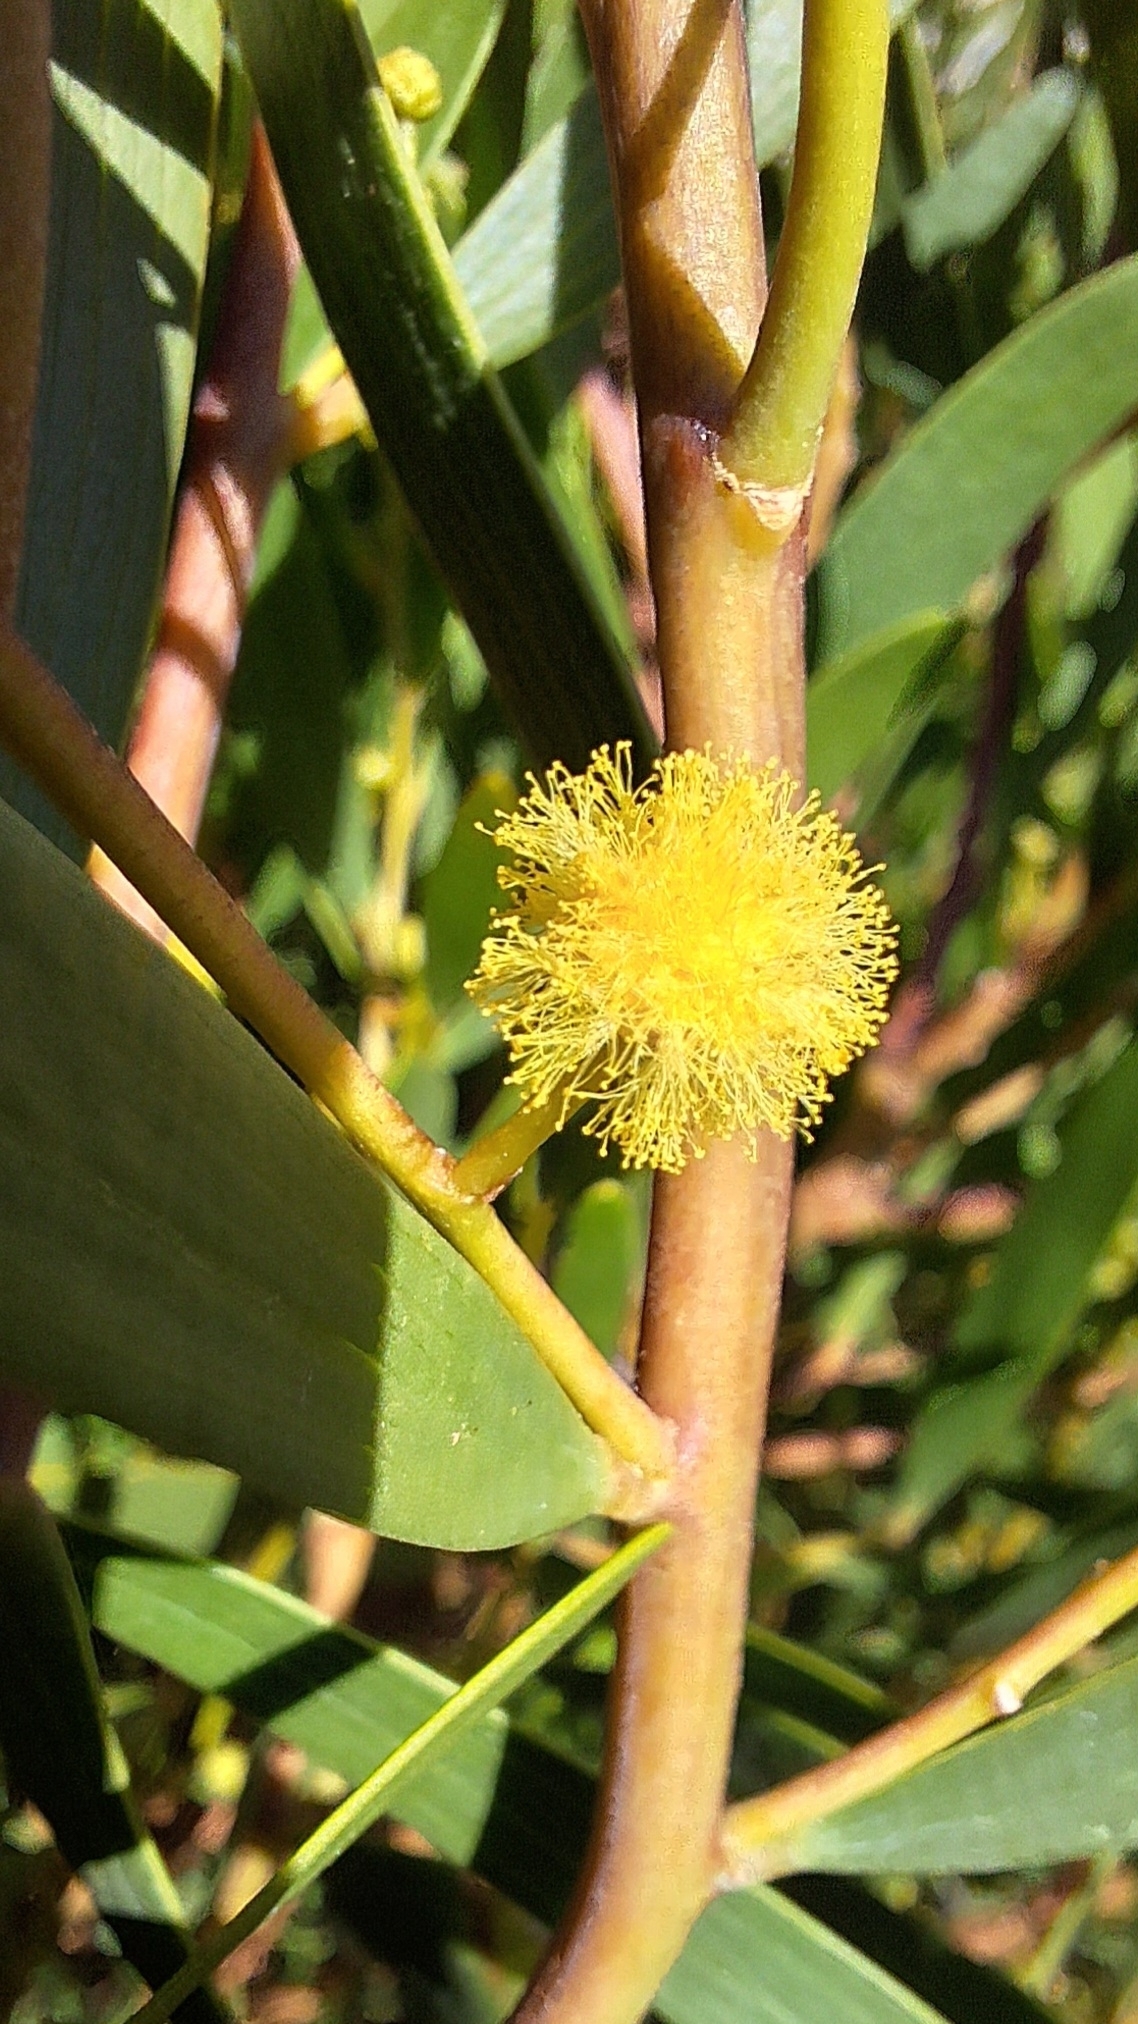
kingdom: Plantae
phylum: Tracheophyta
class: Magnoliopsida
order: Fabales
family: Fabaceae
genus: Acacia
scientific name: Acacia cyclops
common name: Coastal wattle
